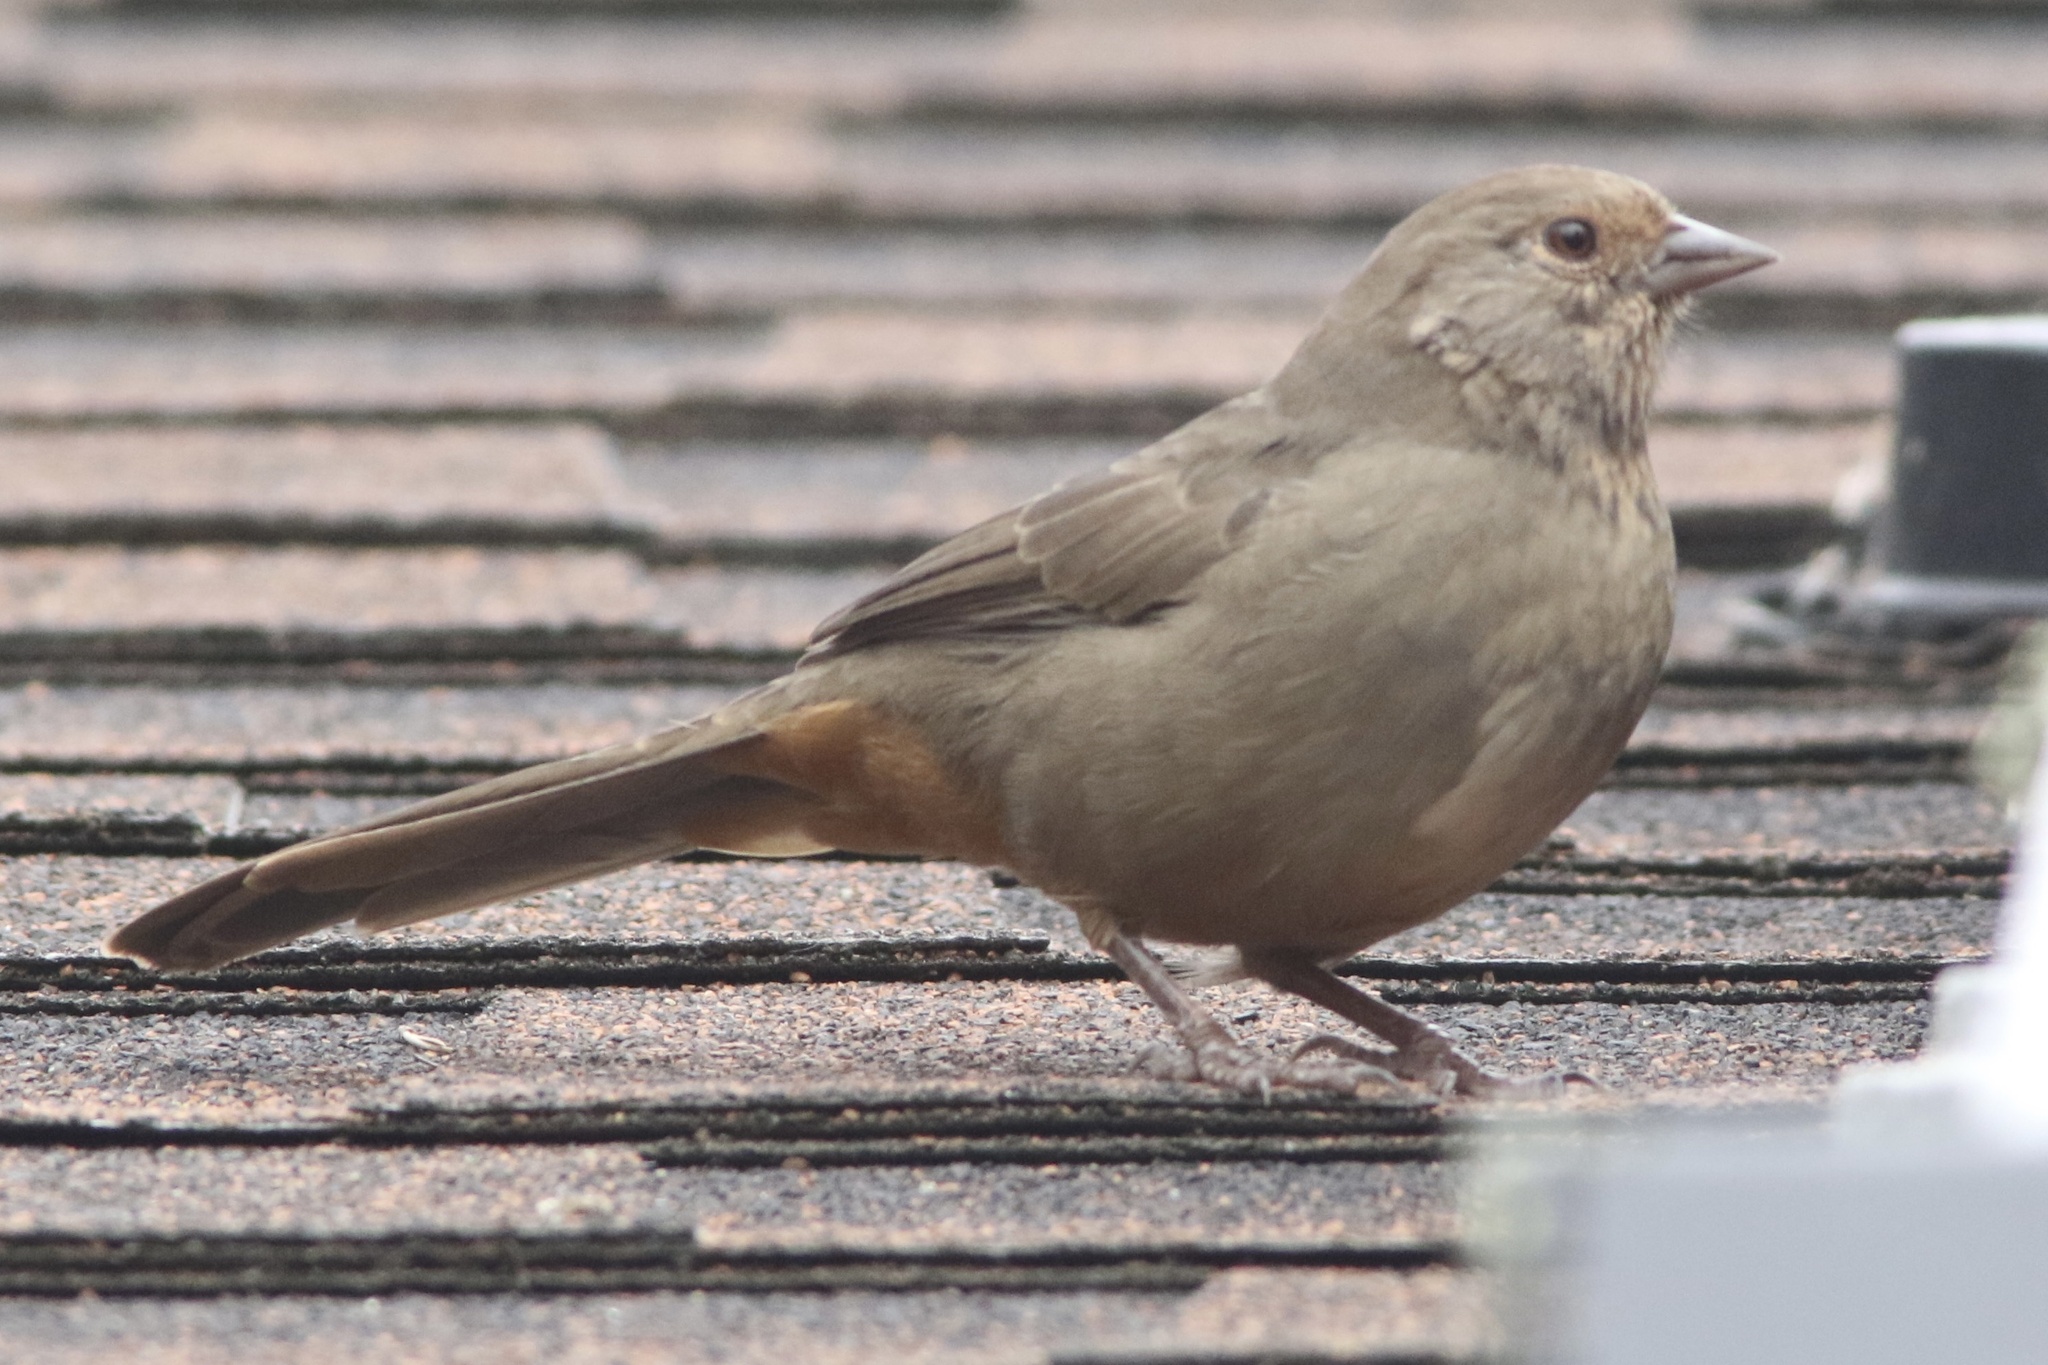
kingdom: Animalia
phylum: Chordata
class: Aves
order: Passeriformes
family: Passerellidae
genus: Melozone
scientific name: Melozone crissalis
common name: California towhee
